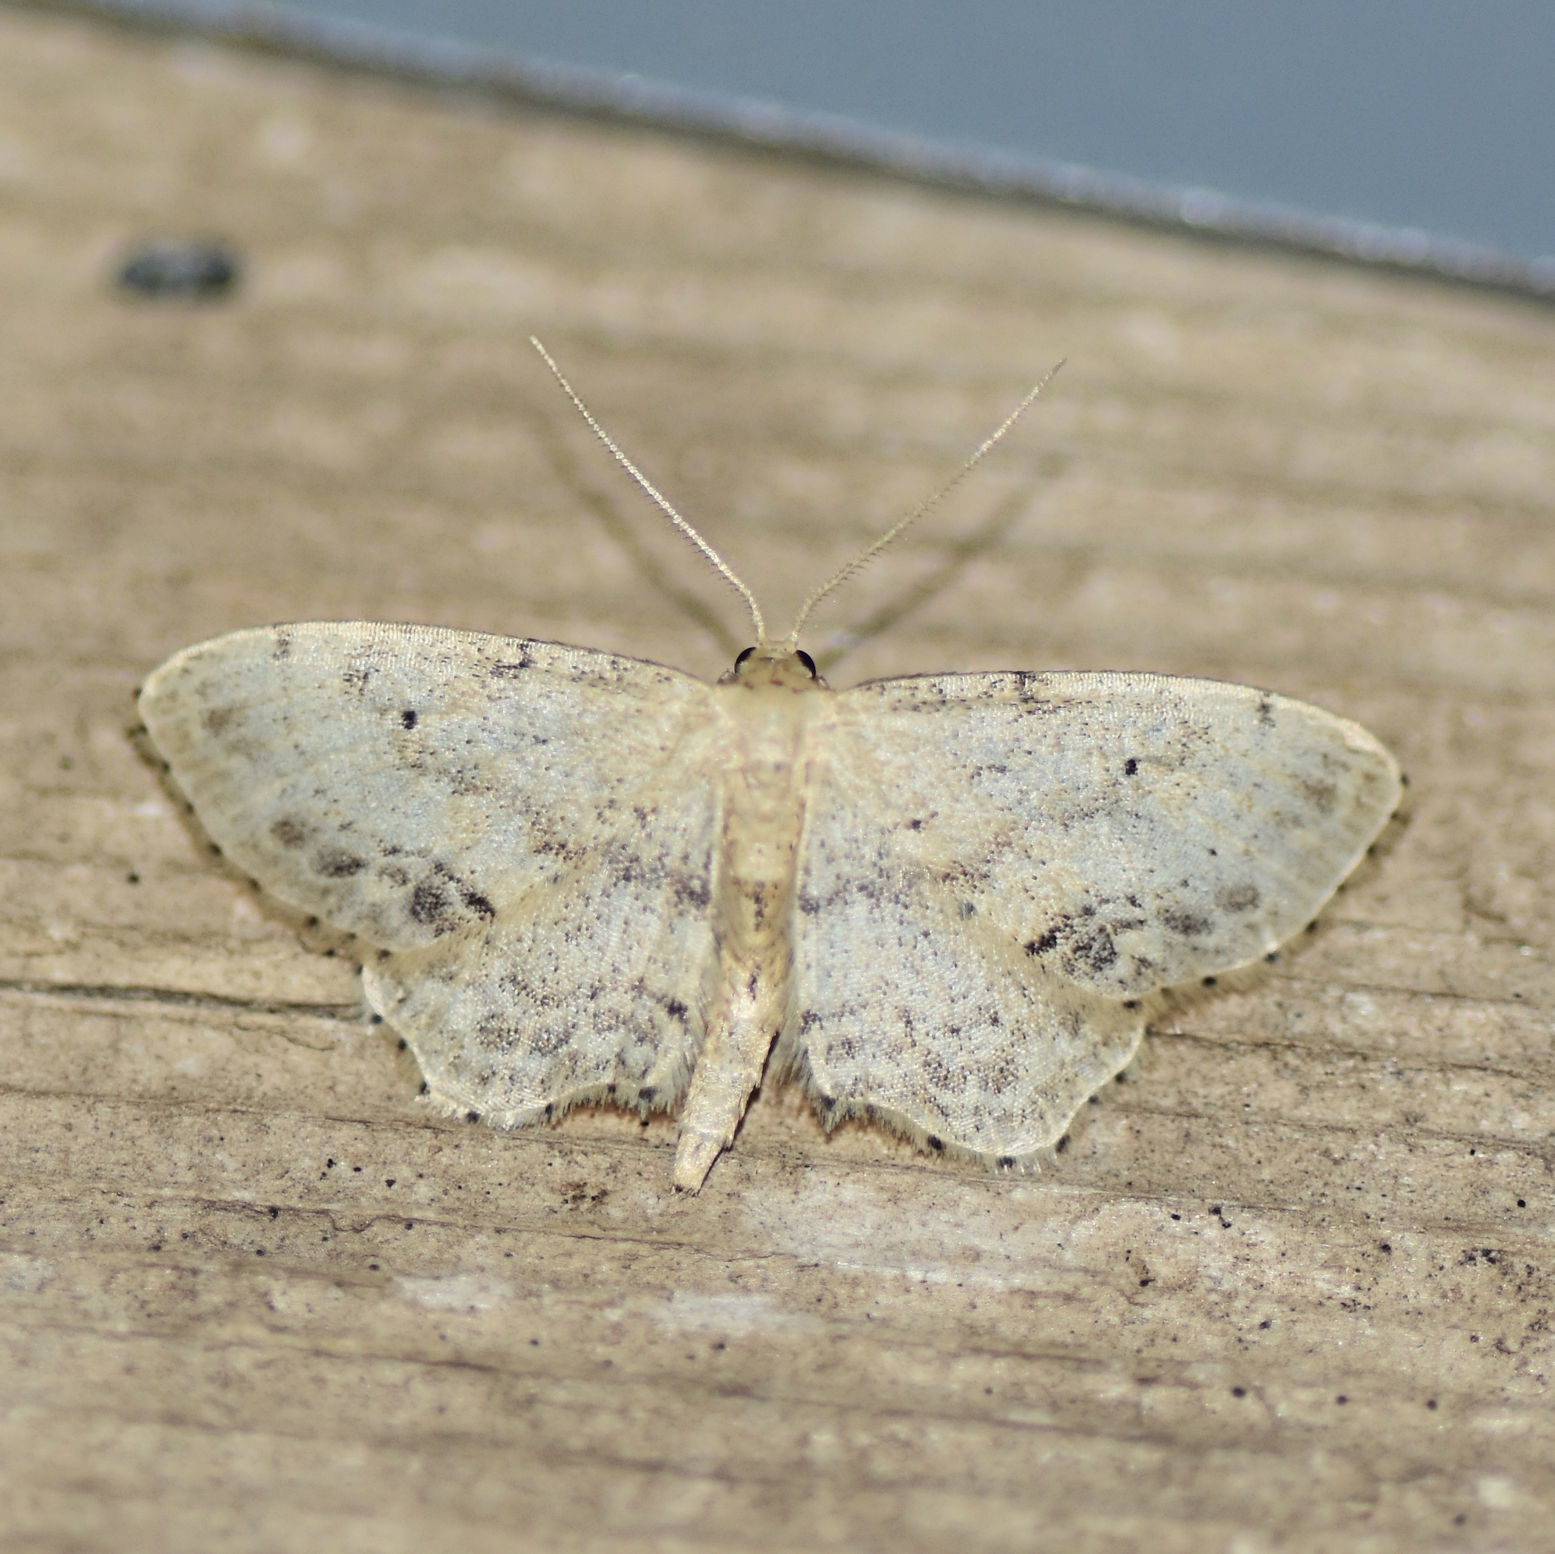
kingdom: Animalia
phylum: Arthropoda
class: Insecta
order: Lepidoptera
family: Geometridae
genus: Scopula
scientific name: Scopula limboundata
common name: Large lace border
